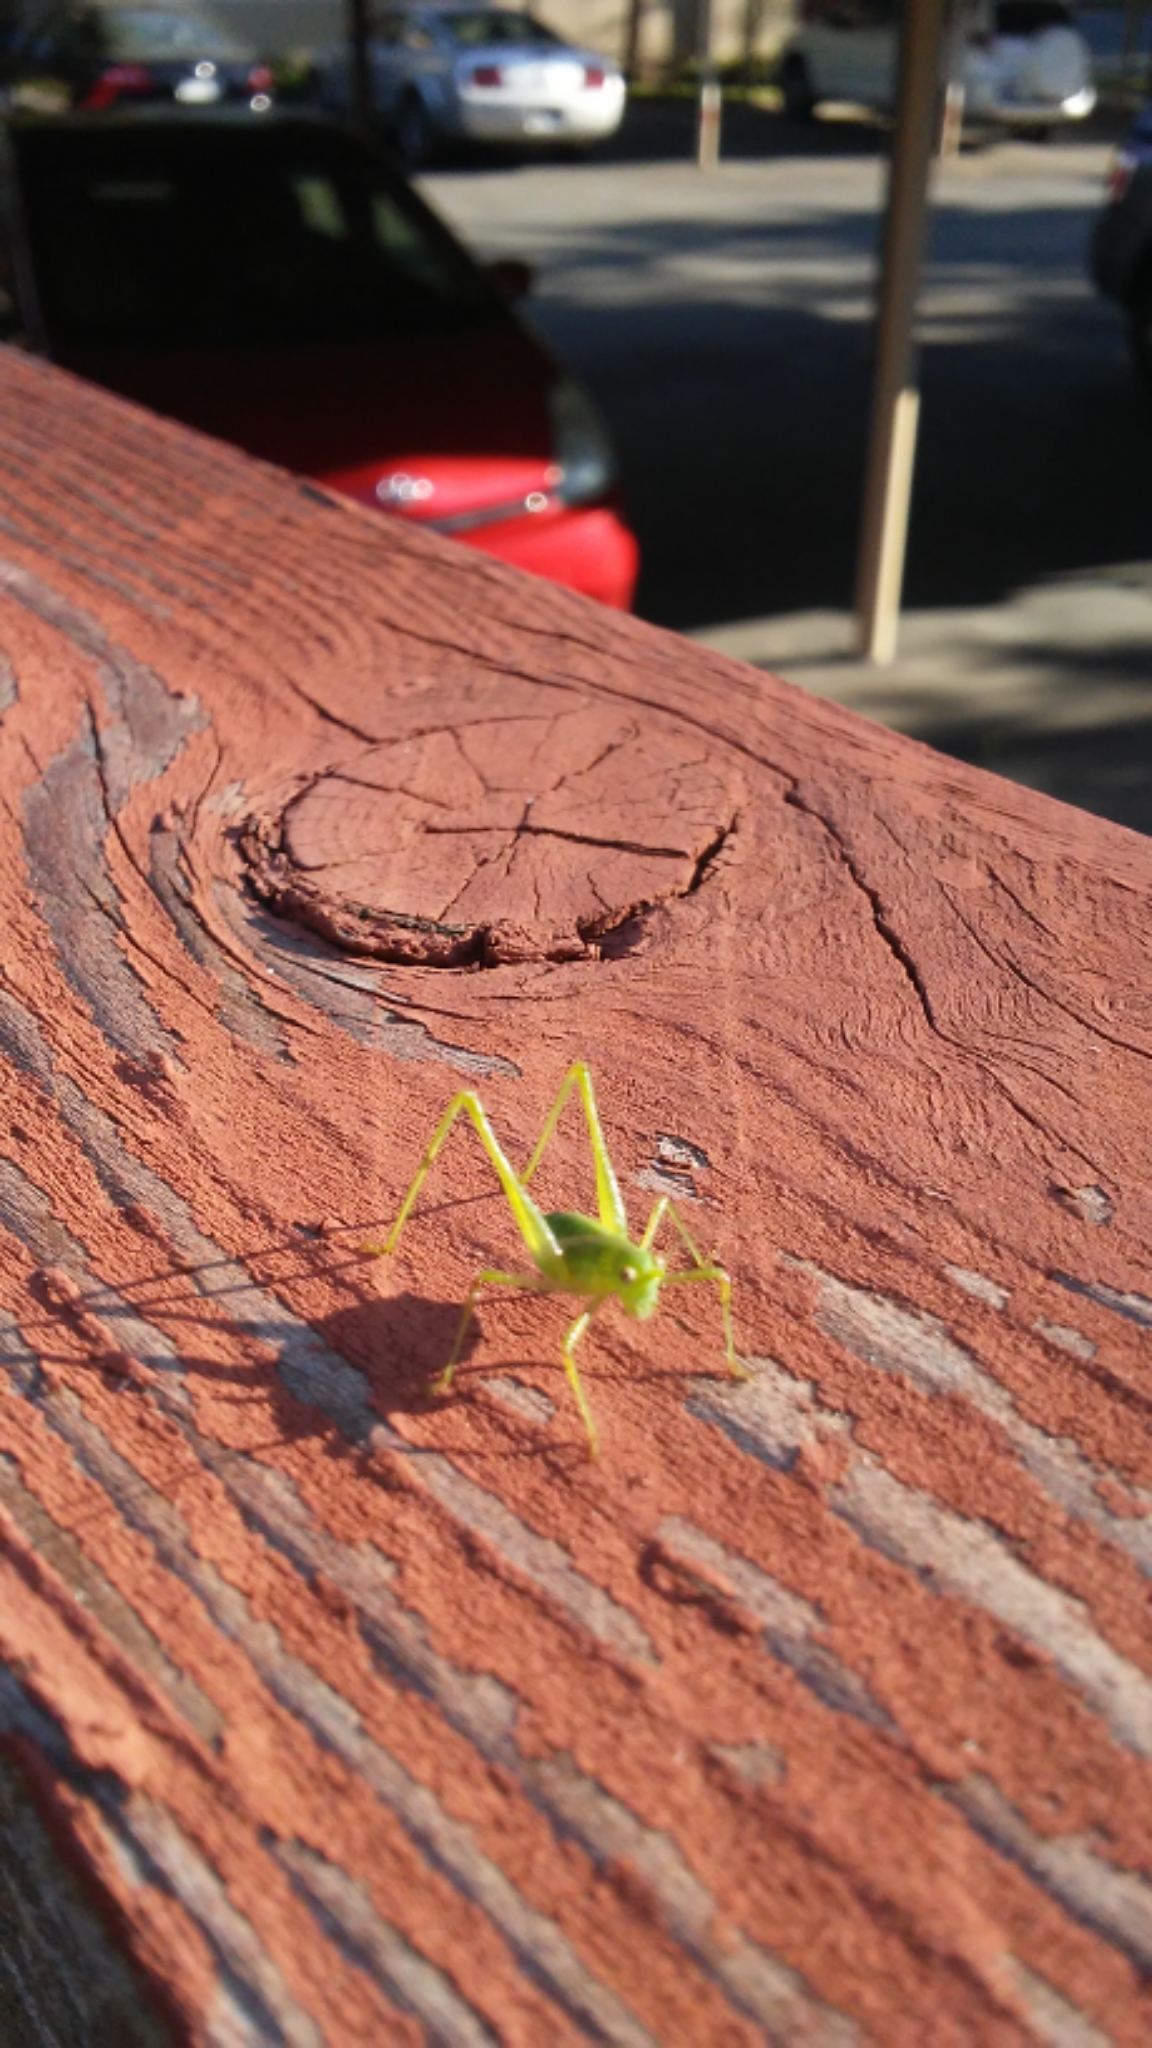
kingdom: Animalia
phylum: Arthropoda
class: Insecta
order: Orthoptera
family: Tettigoniidae
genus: Phaneroptera
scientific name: Phaneroptera nana
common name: Southern sickle bush-cricket
